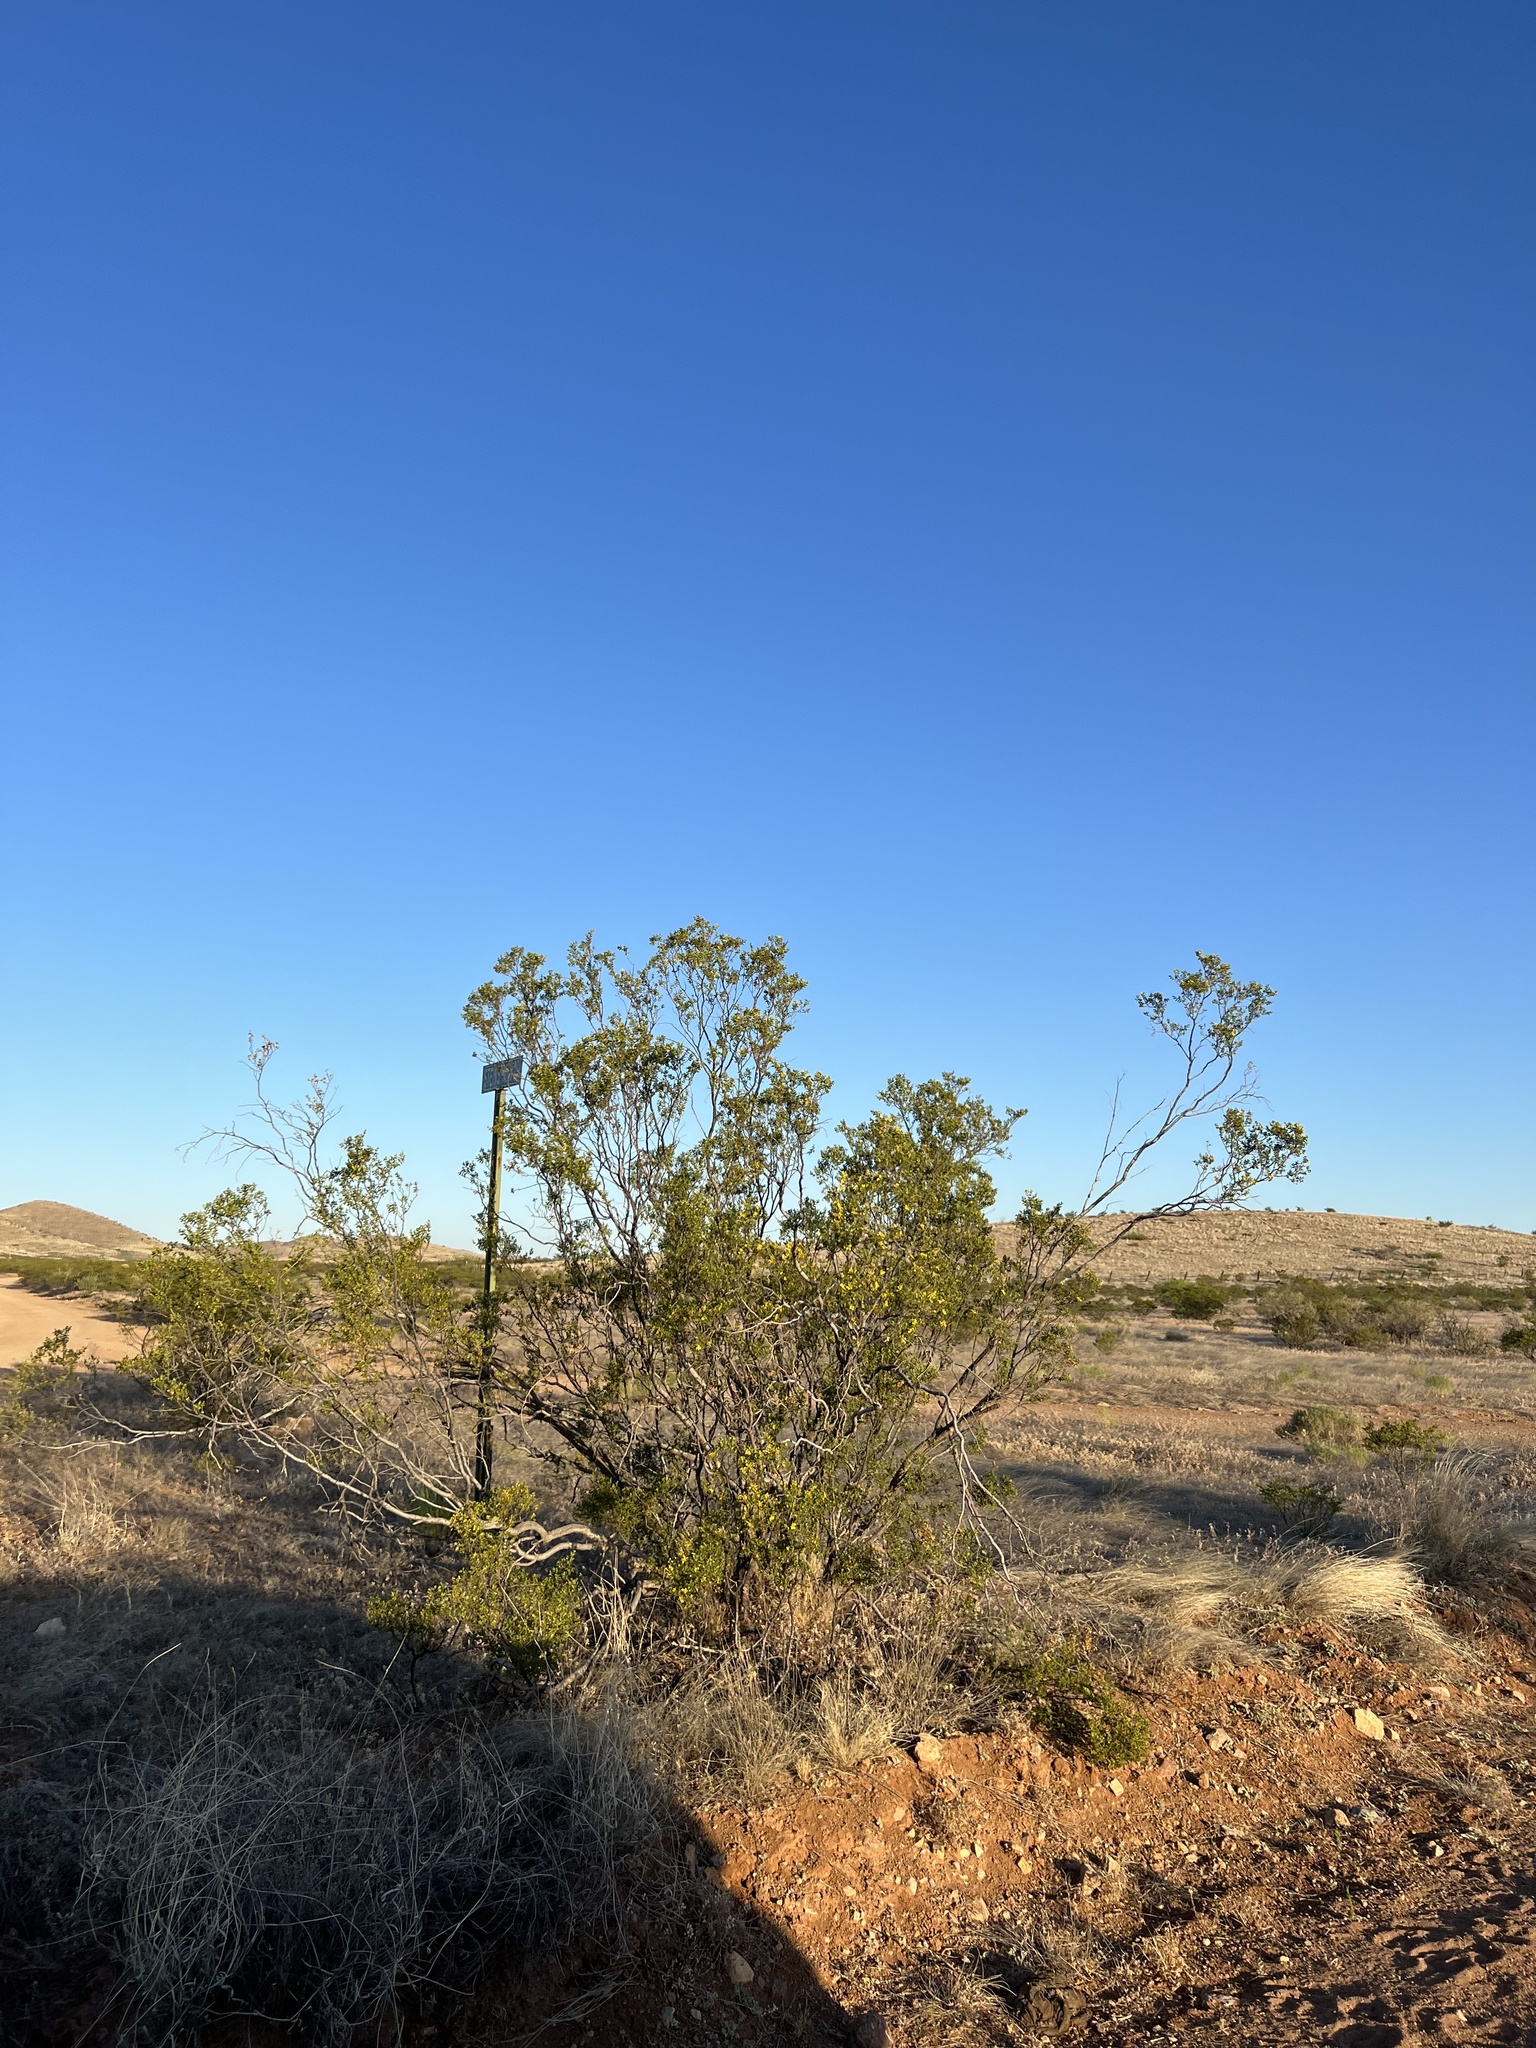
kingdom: Plantae
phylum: Tracheophyta
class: Magnoliopsida
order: Zygophyllales
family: Zygophyllaceae
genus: Larrea
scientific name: Larrea tridentata
